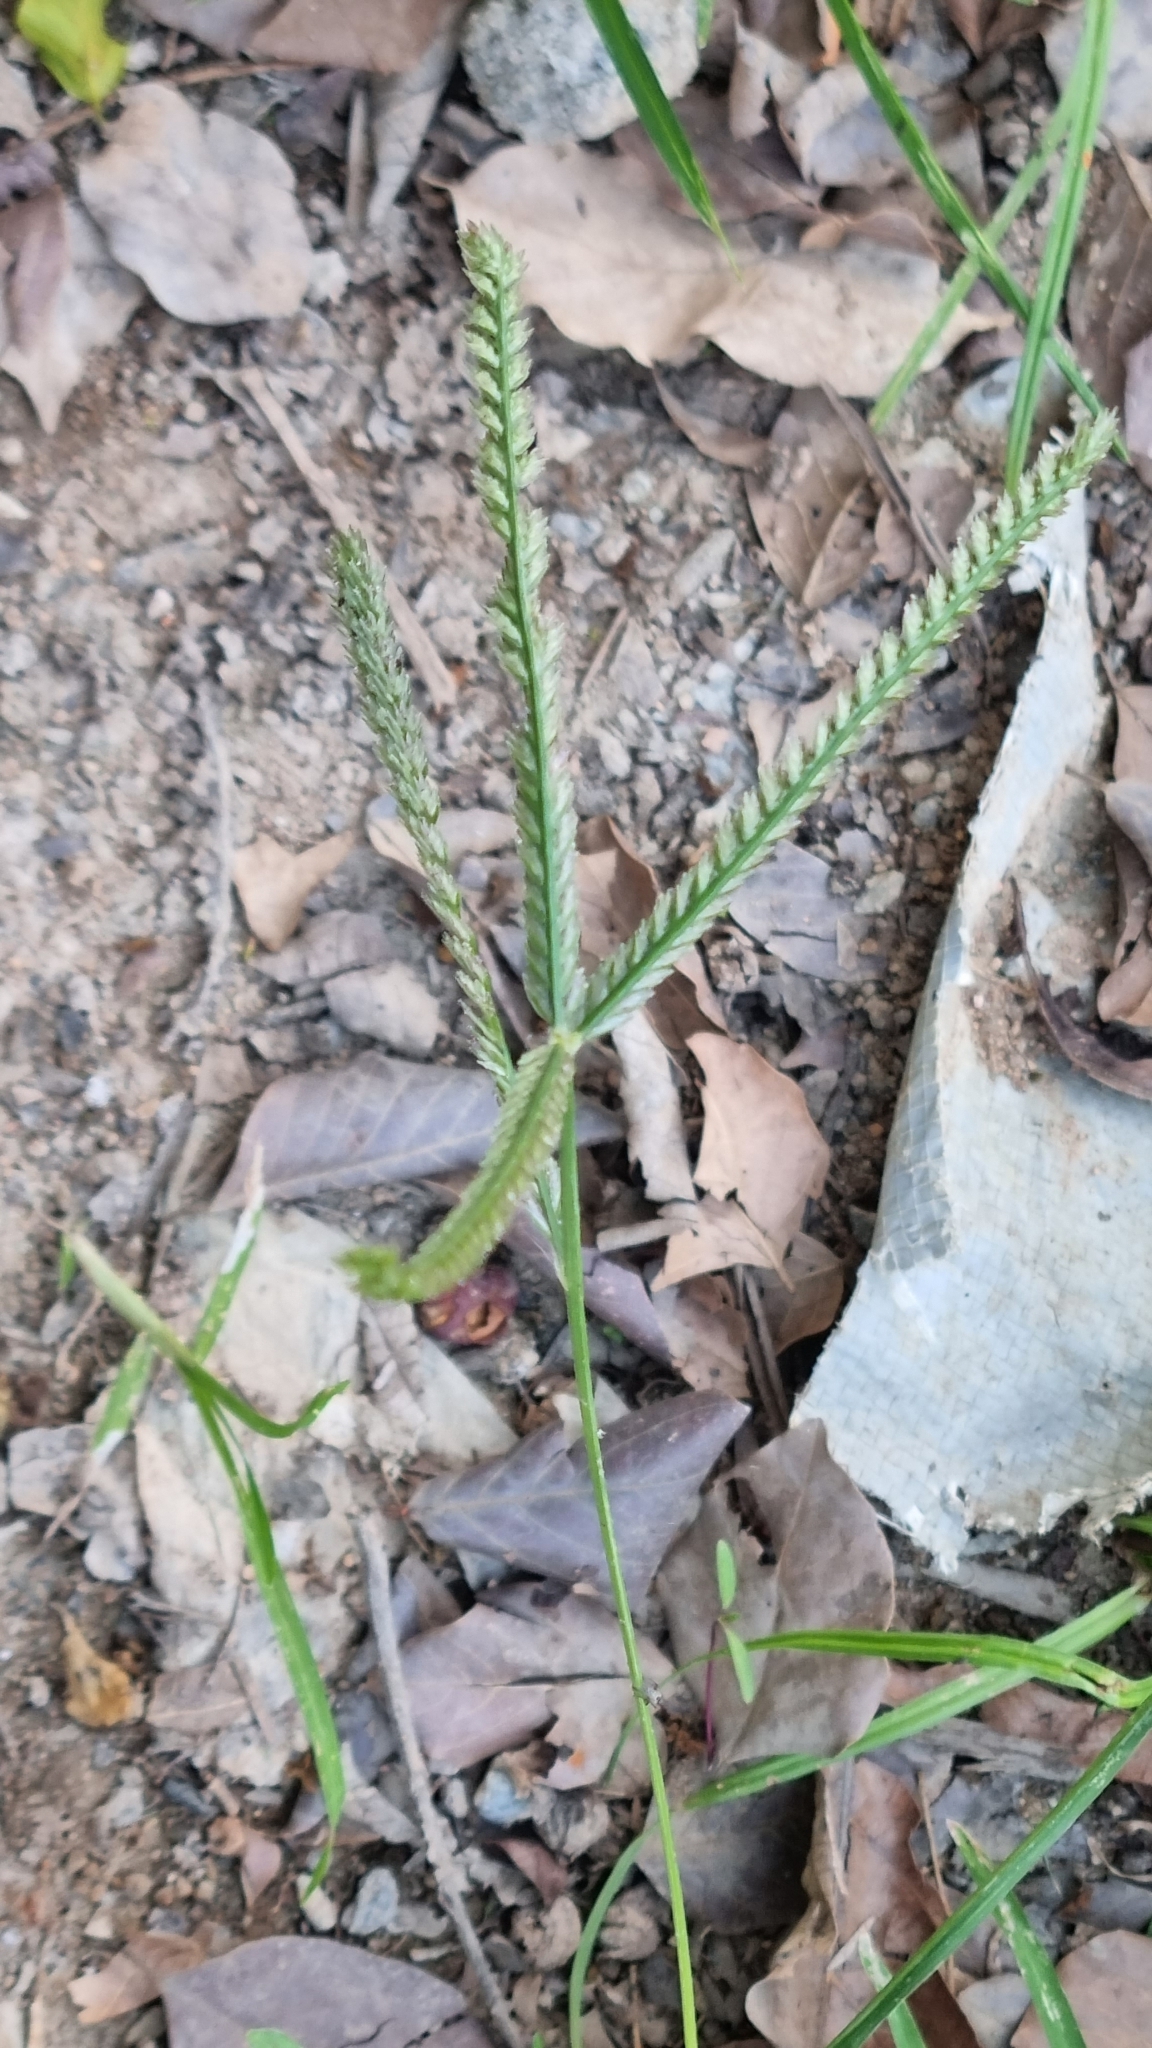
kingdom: Plantae
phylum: Tracheophyta
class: Liliopsida
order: Poales
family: Poaceae
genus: Eleusine
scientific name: Eleusine indica
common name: Yard-grass
